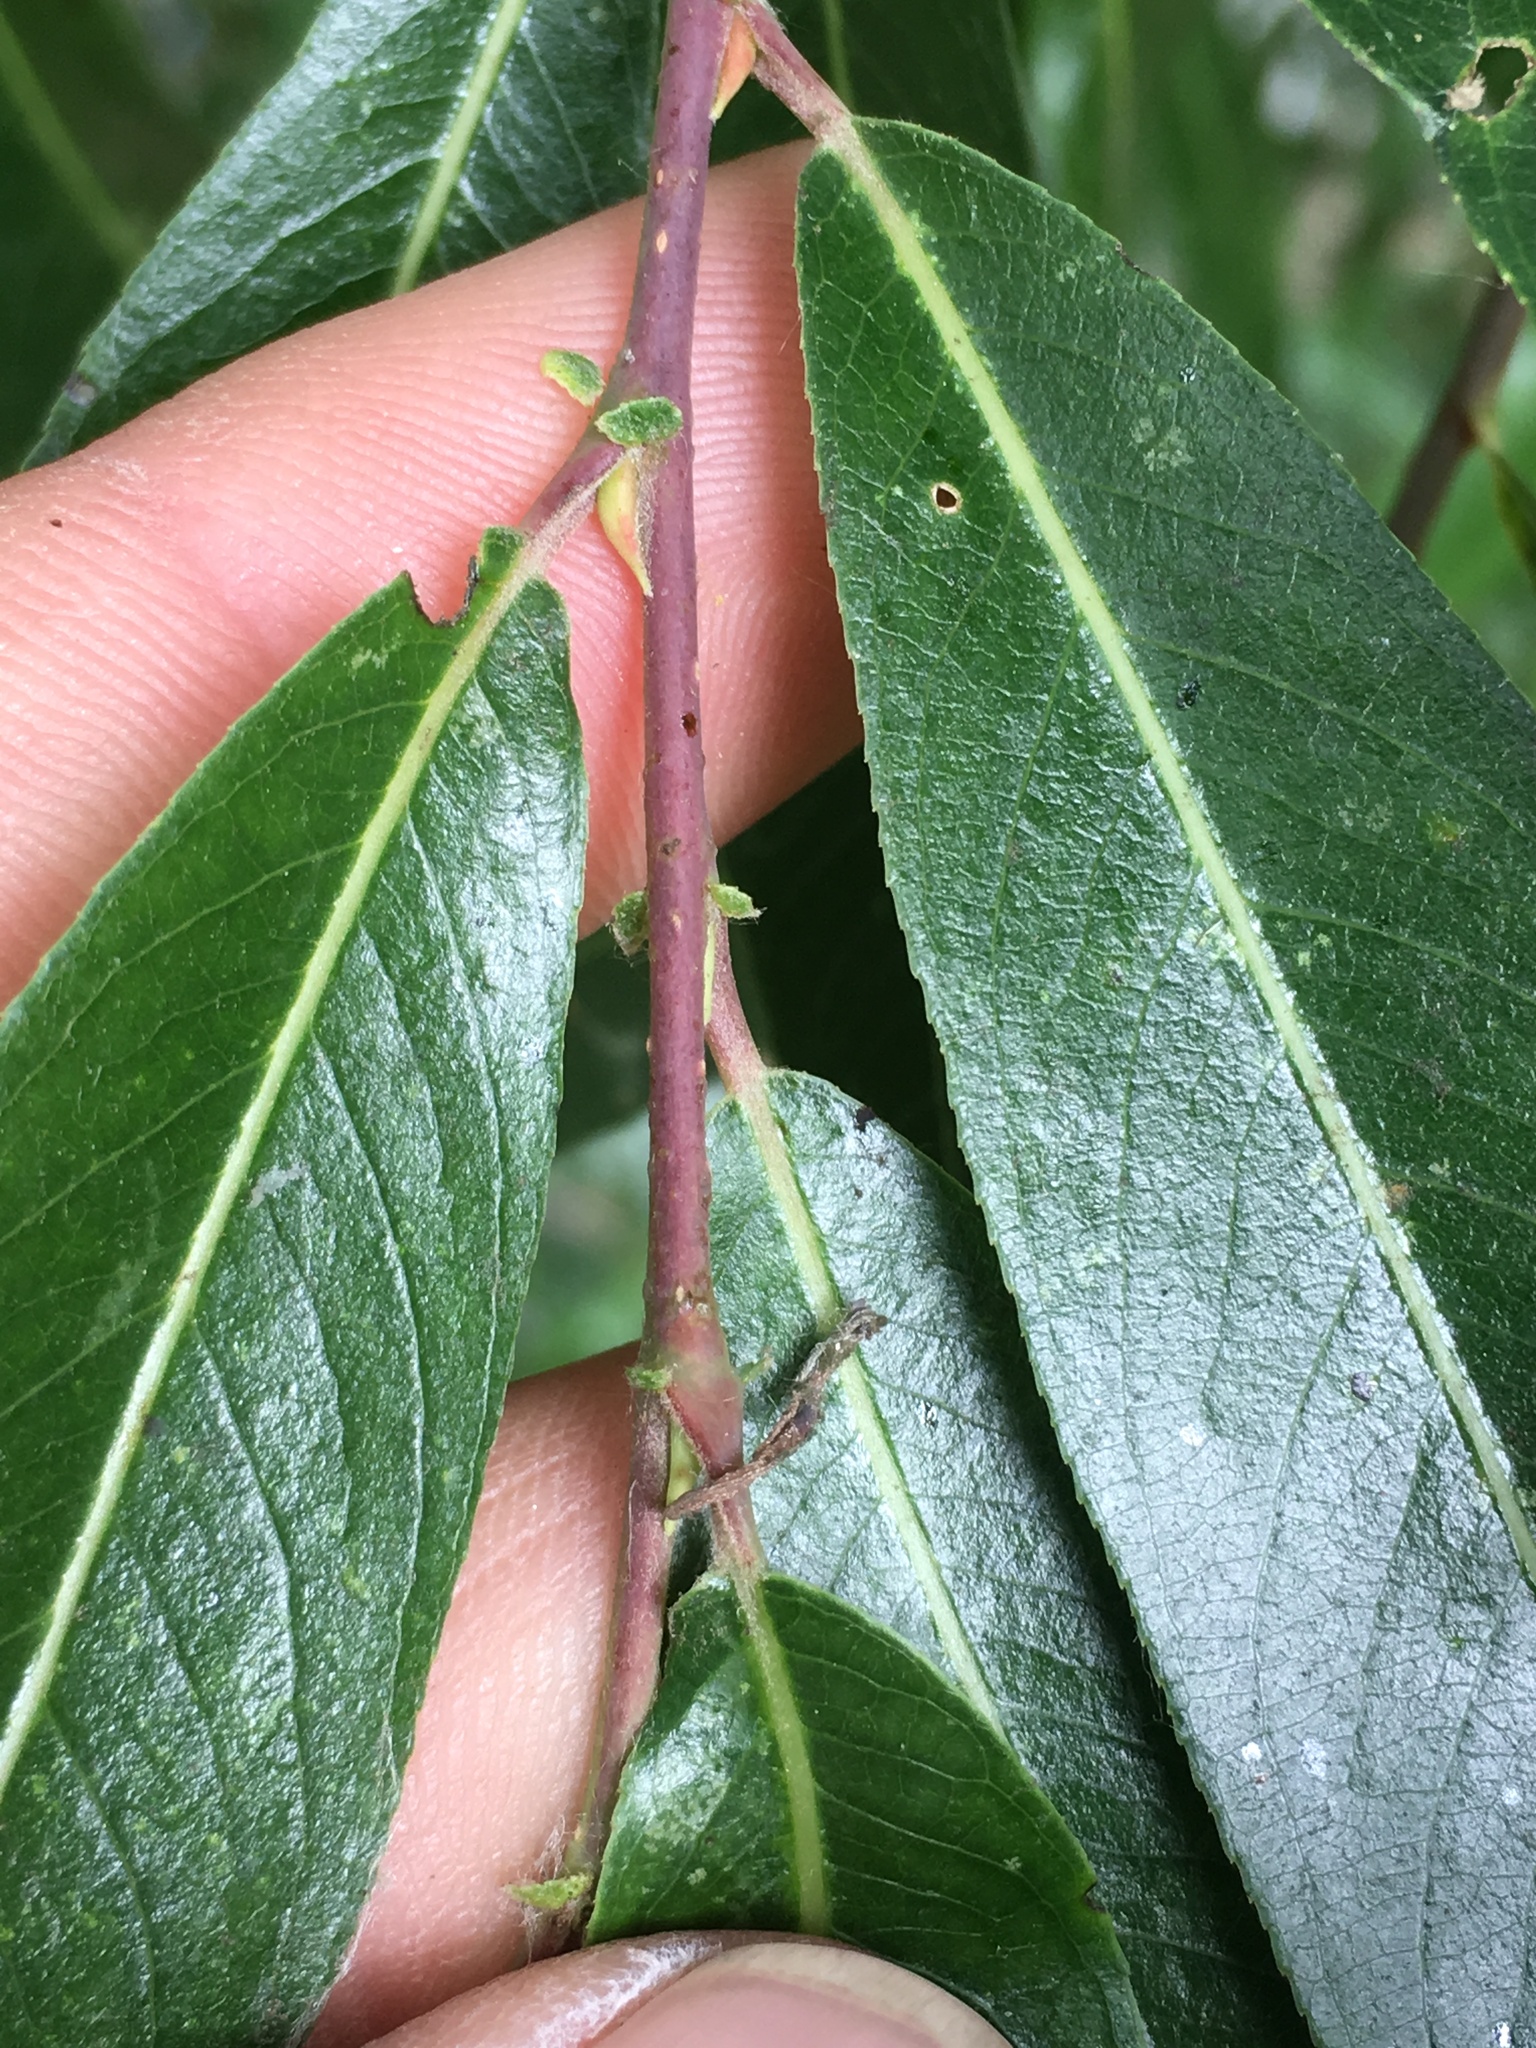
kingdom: Plantae
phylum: Tracheophyta
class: Magnoliopsida
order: Malpighiales
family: Salicaceae
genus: Salix
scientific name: Salix laevigata
